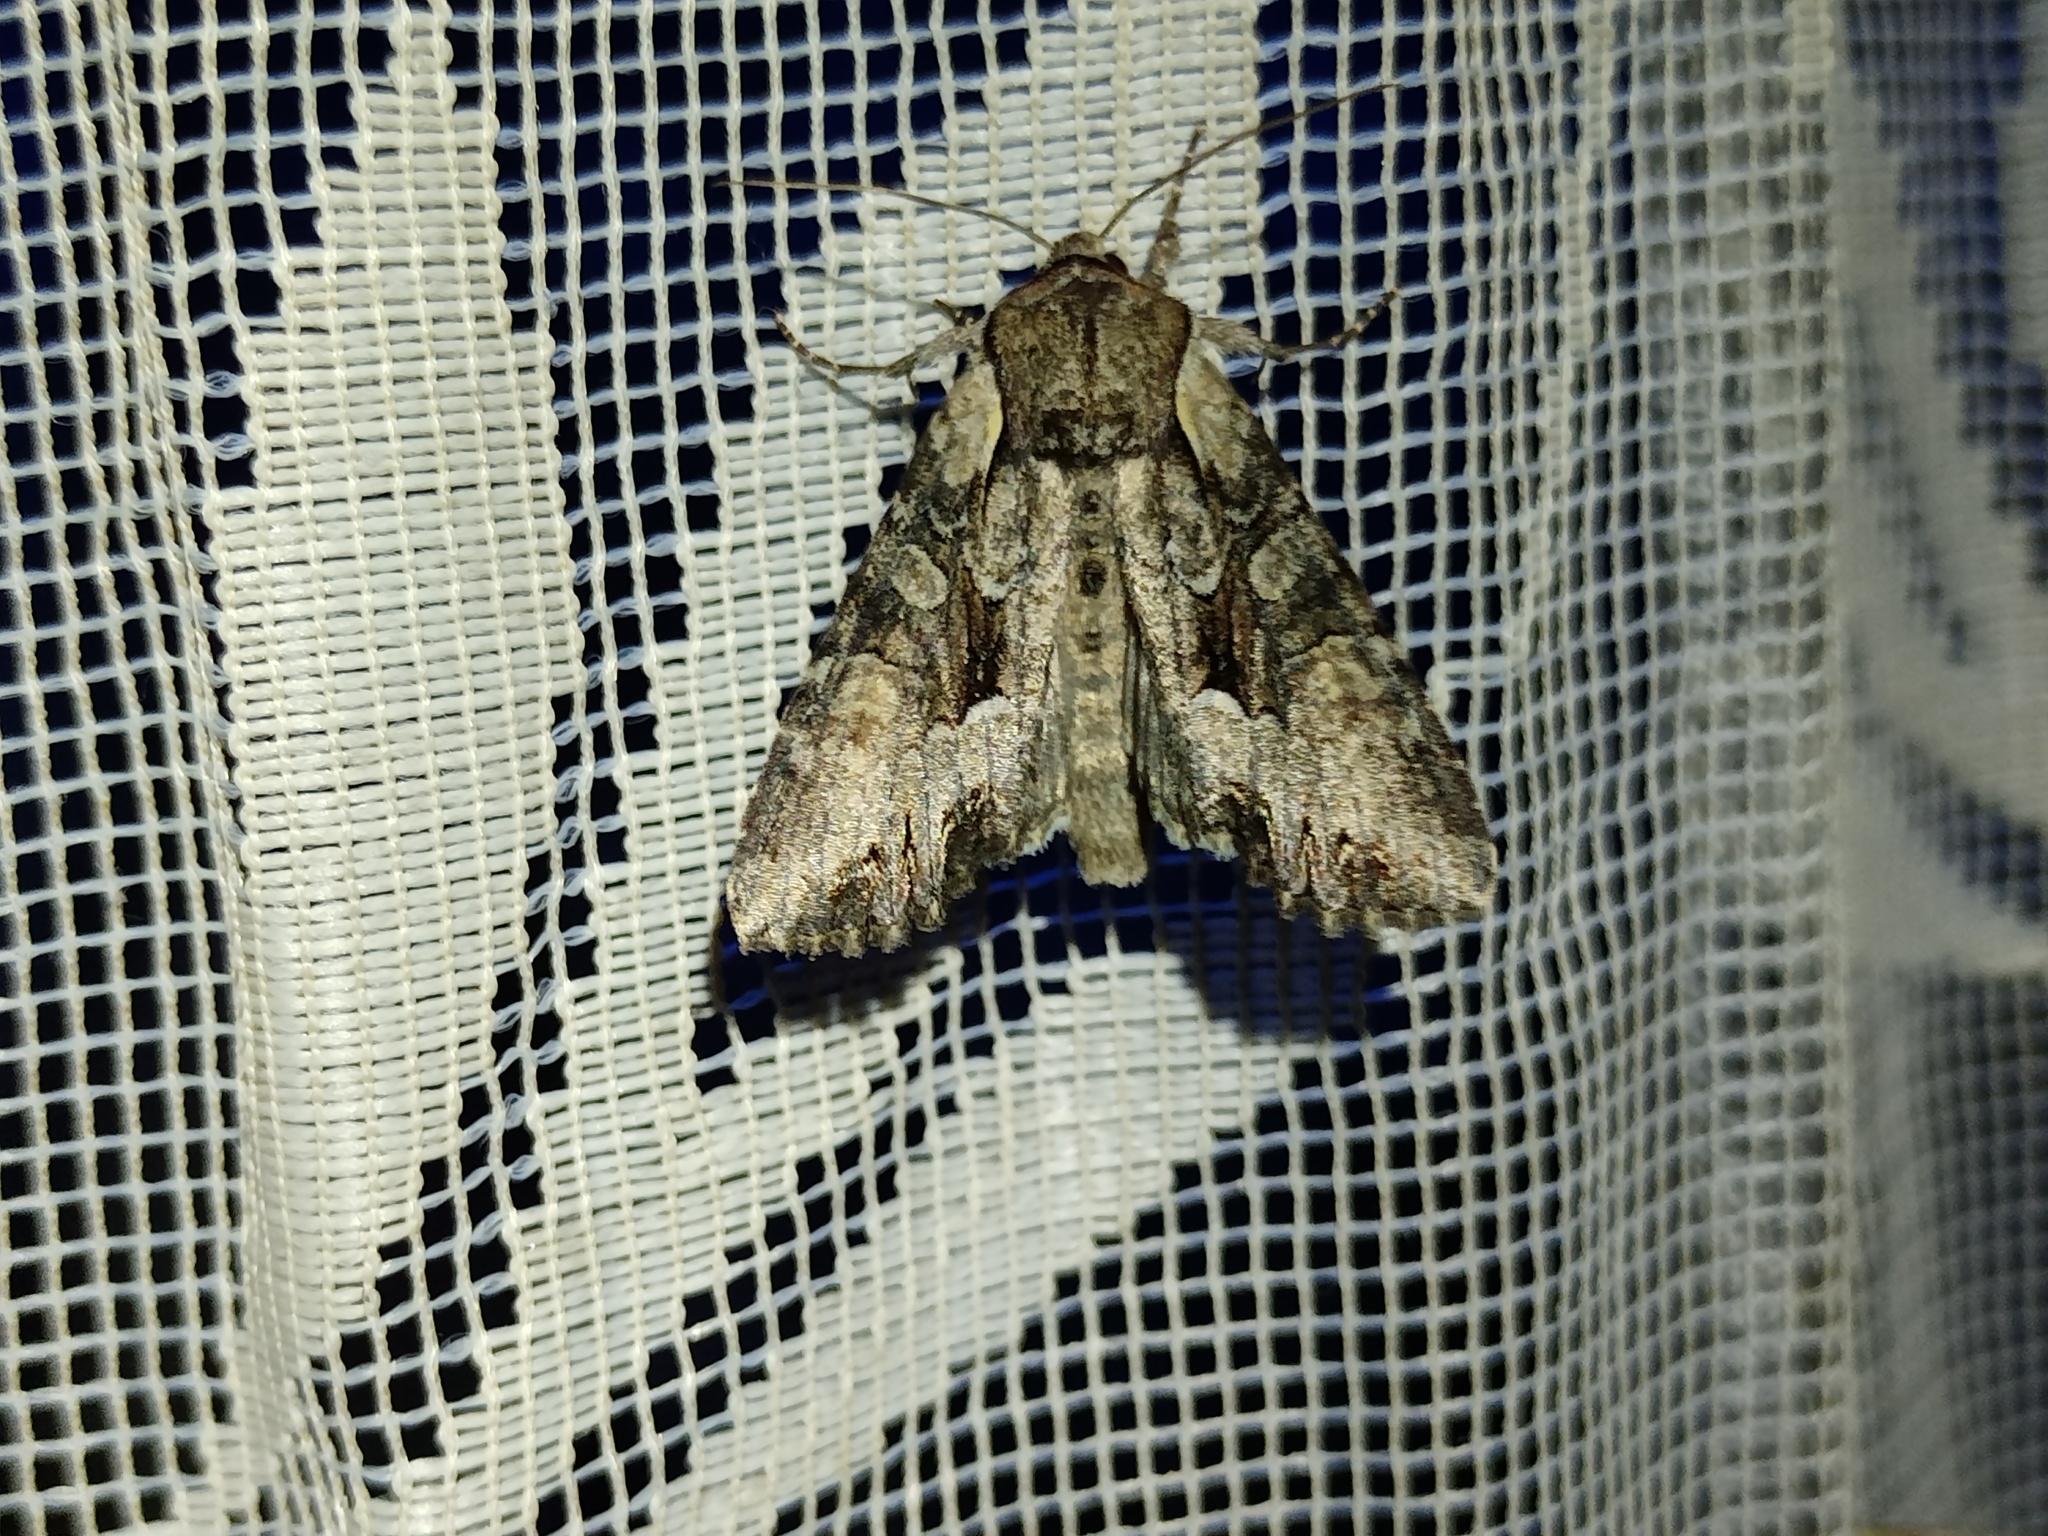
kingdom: Animalia
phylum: Arthropoda
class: Insecta
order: Lepidoptera
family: Noctuidae
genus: Lacanobia
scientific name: Lacanobia w-latinum
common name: Light brocade
